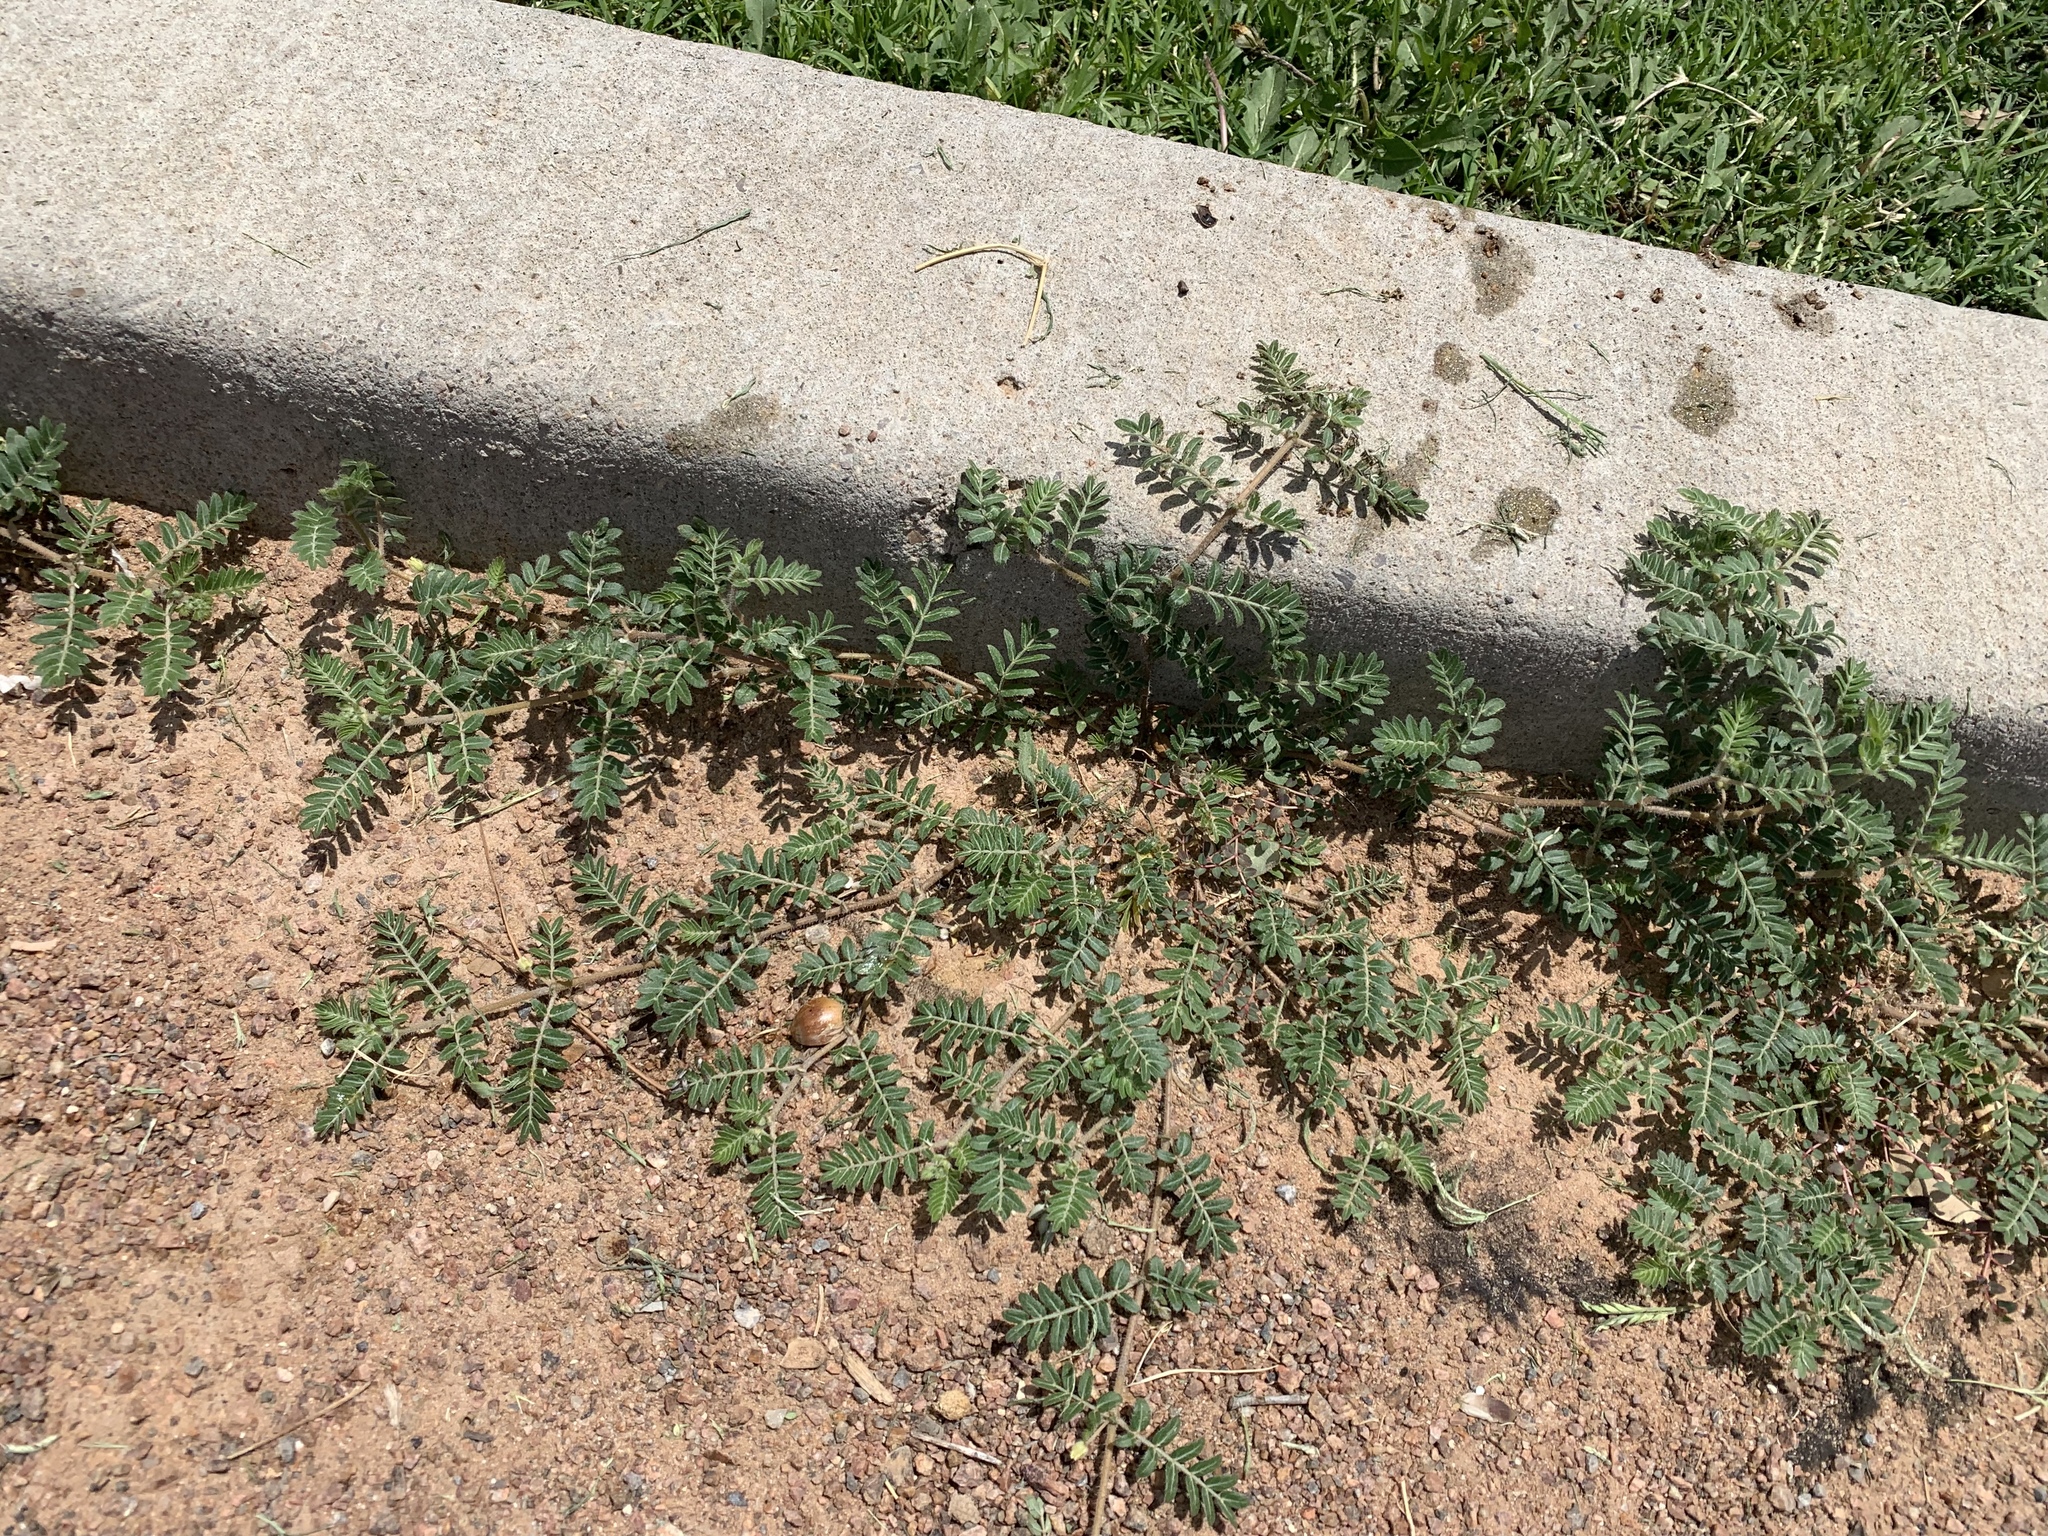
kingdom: Plantae
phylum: Tracheophyta
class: Magnoliopsida
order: Zygophyllales
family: Zygophyllaceae
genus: Tribulus
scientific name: Tribulus terrestris
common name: Puncturevine
